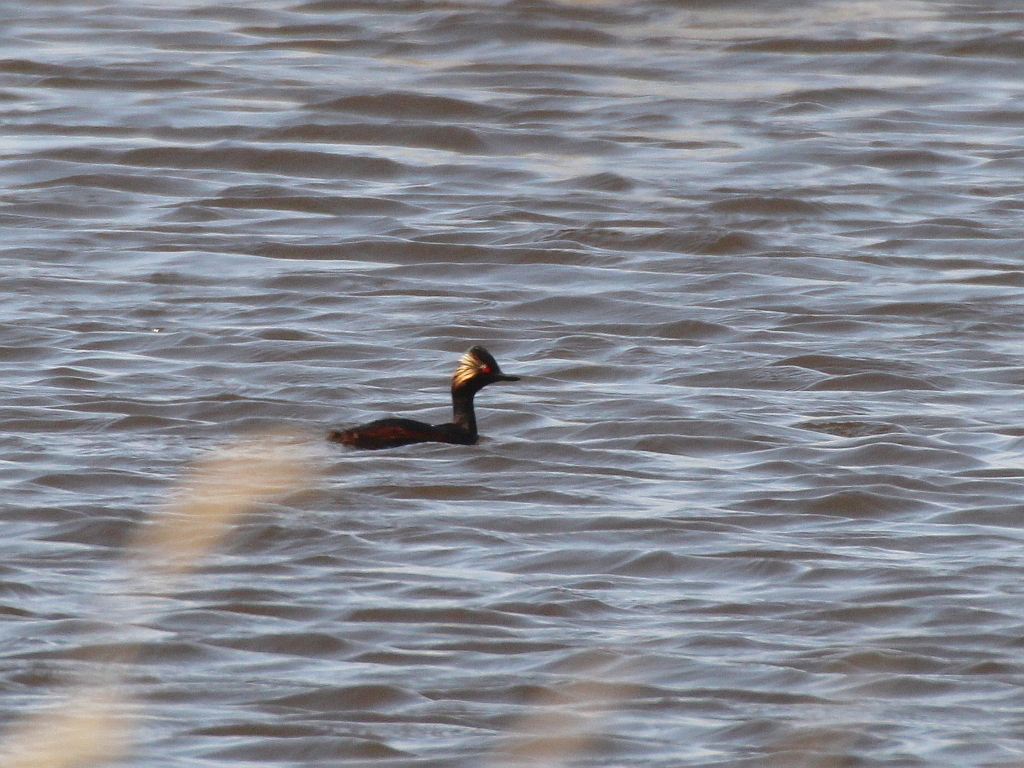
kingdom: Animalia
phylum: Chordata
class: Aves
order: Podicipediformes
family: Podicipedidae
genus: Podiceps
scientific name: Podiceps nigricollis
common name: Black-necked grebe
